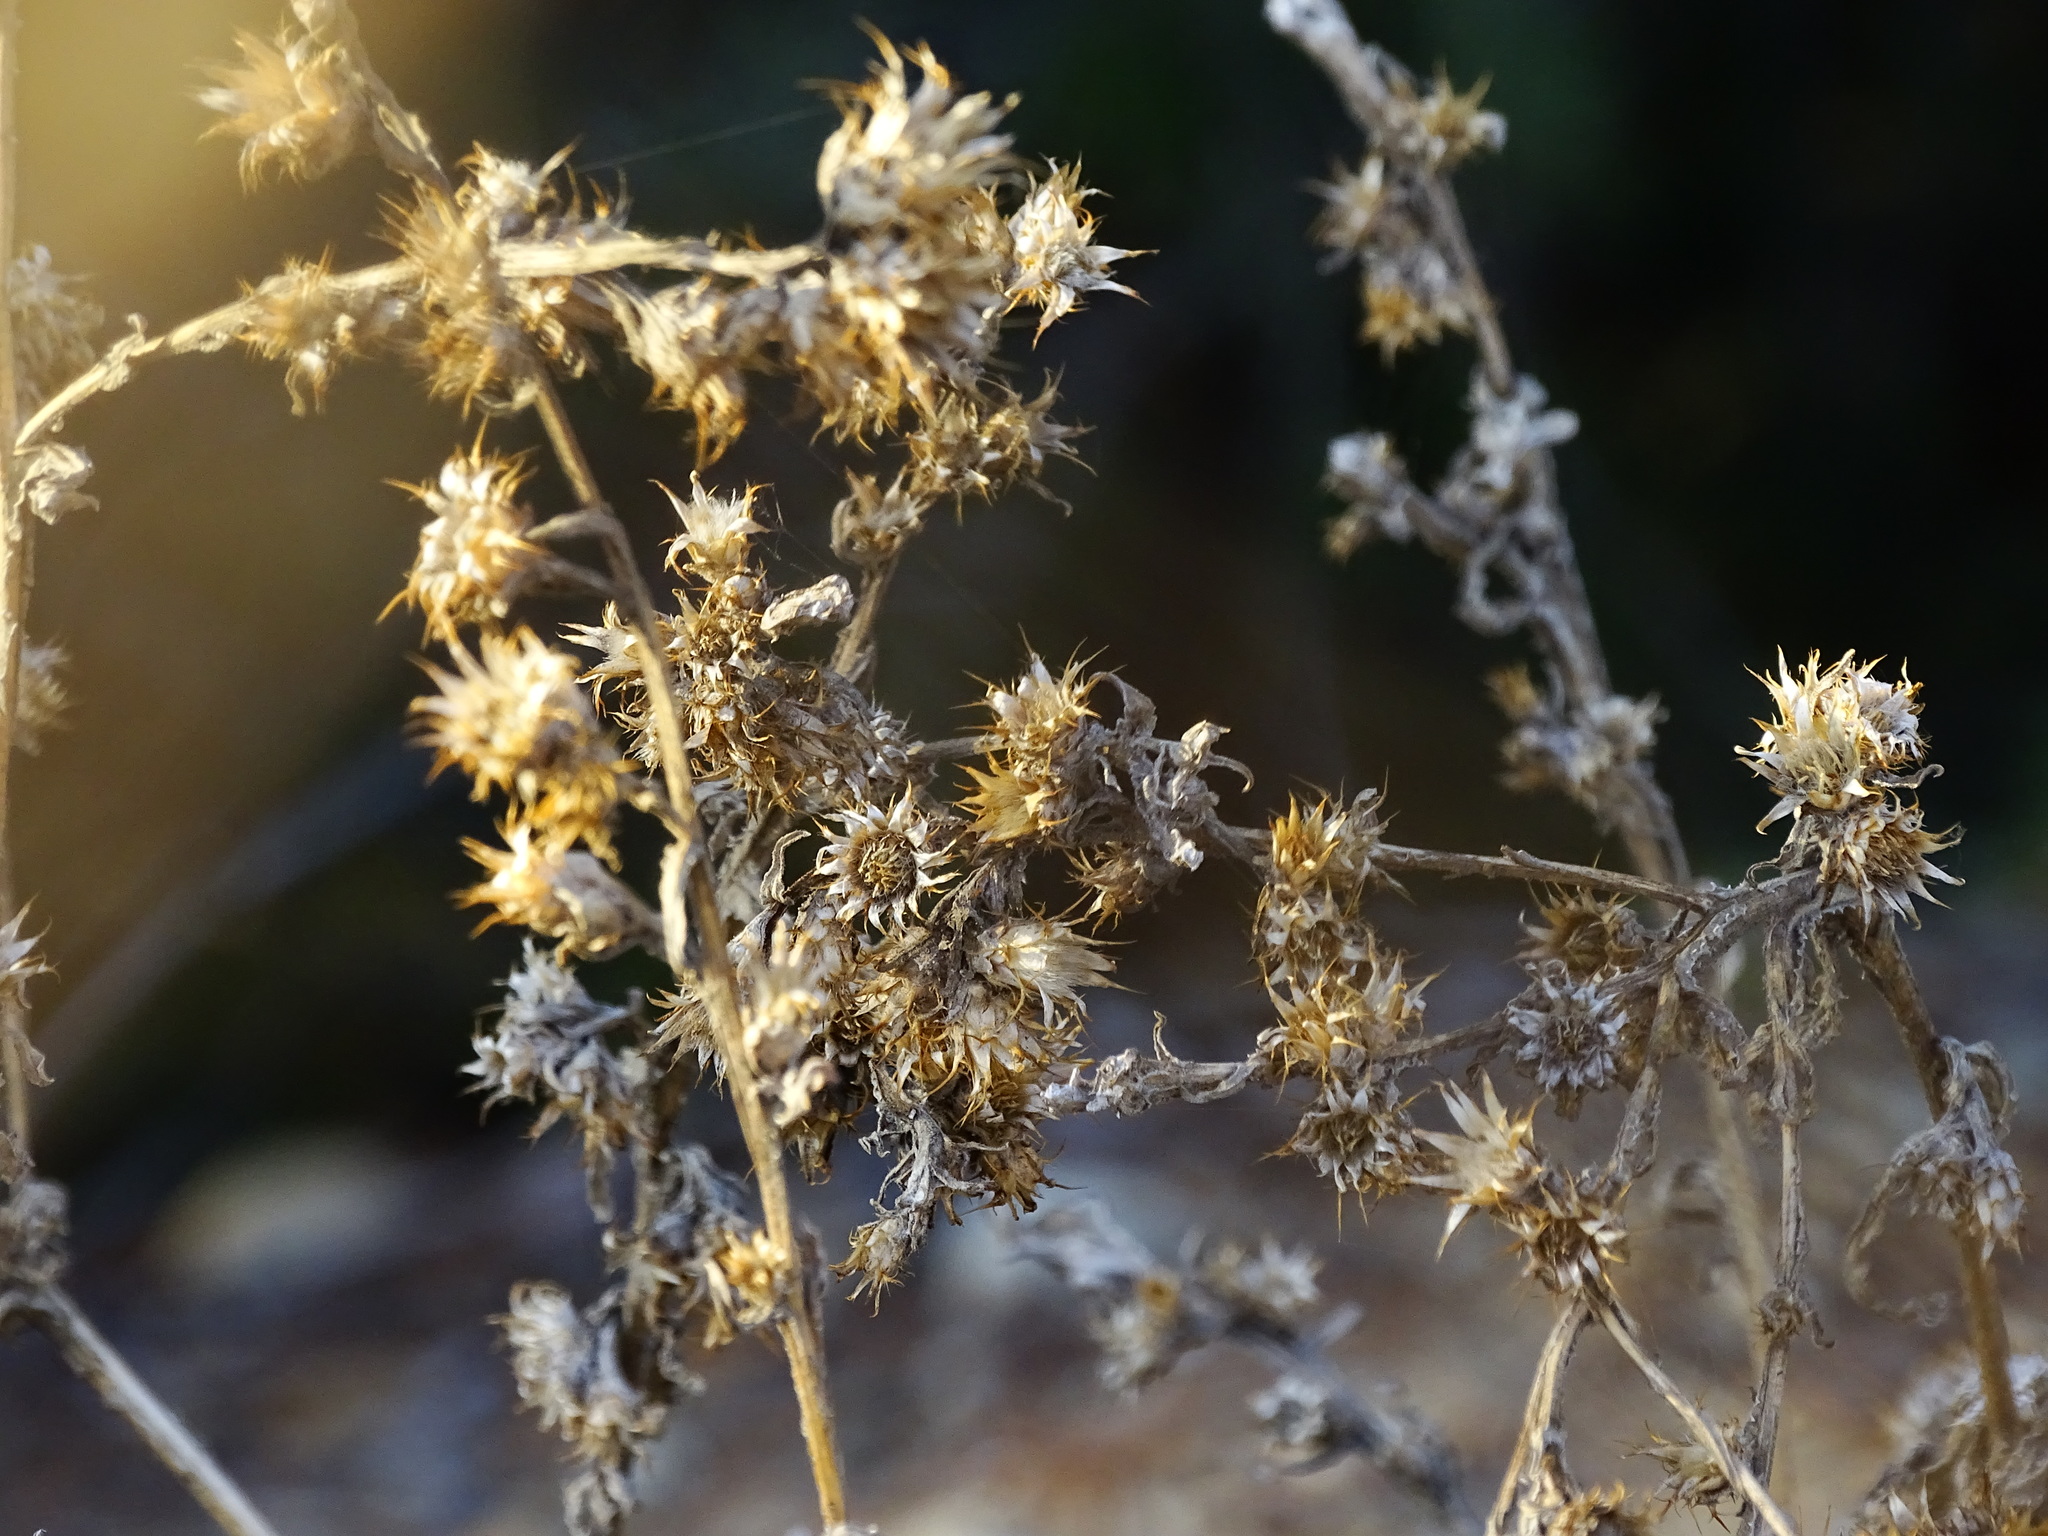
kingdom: Plantae
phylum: Tracheophyta
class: Magnoliopsida
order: Asterales
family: Asteraceae
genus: Centaurea
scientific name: Centaurea melitensis
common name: Maltese star-thistle
